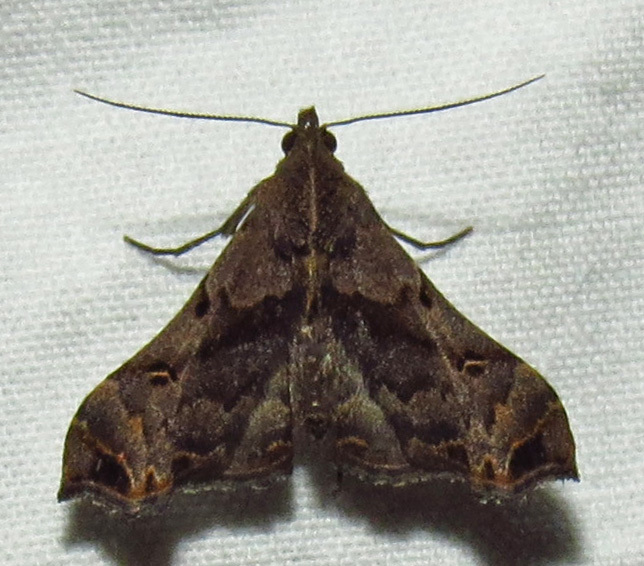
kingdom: Animalia
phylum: Arthropoda
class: Insecta
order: Lepidoptera
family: Erebidae
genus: Palthis
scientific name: Palthis asopialis
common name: Faint-spotted palthis moth
